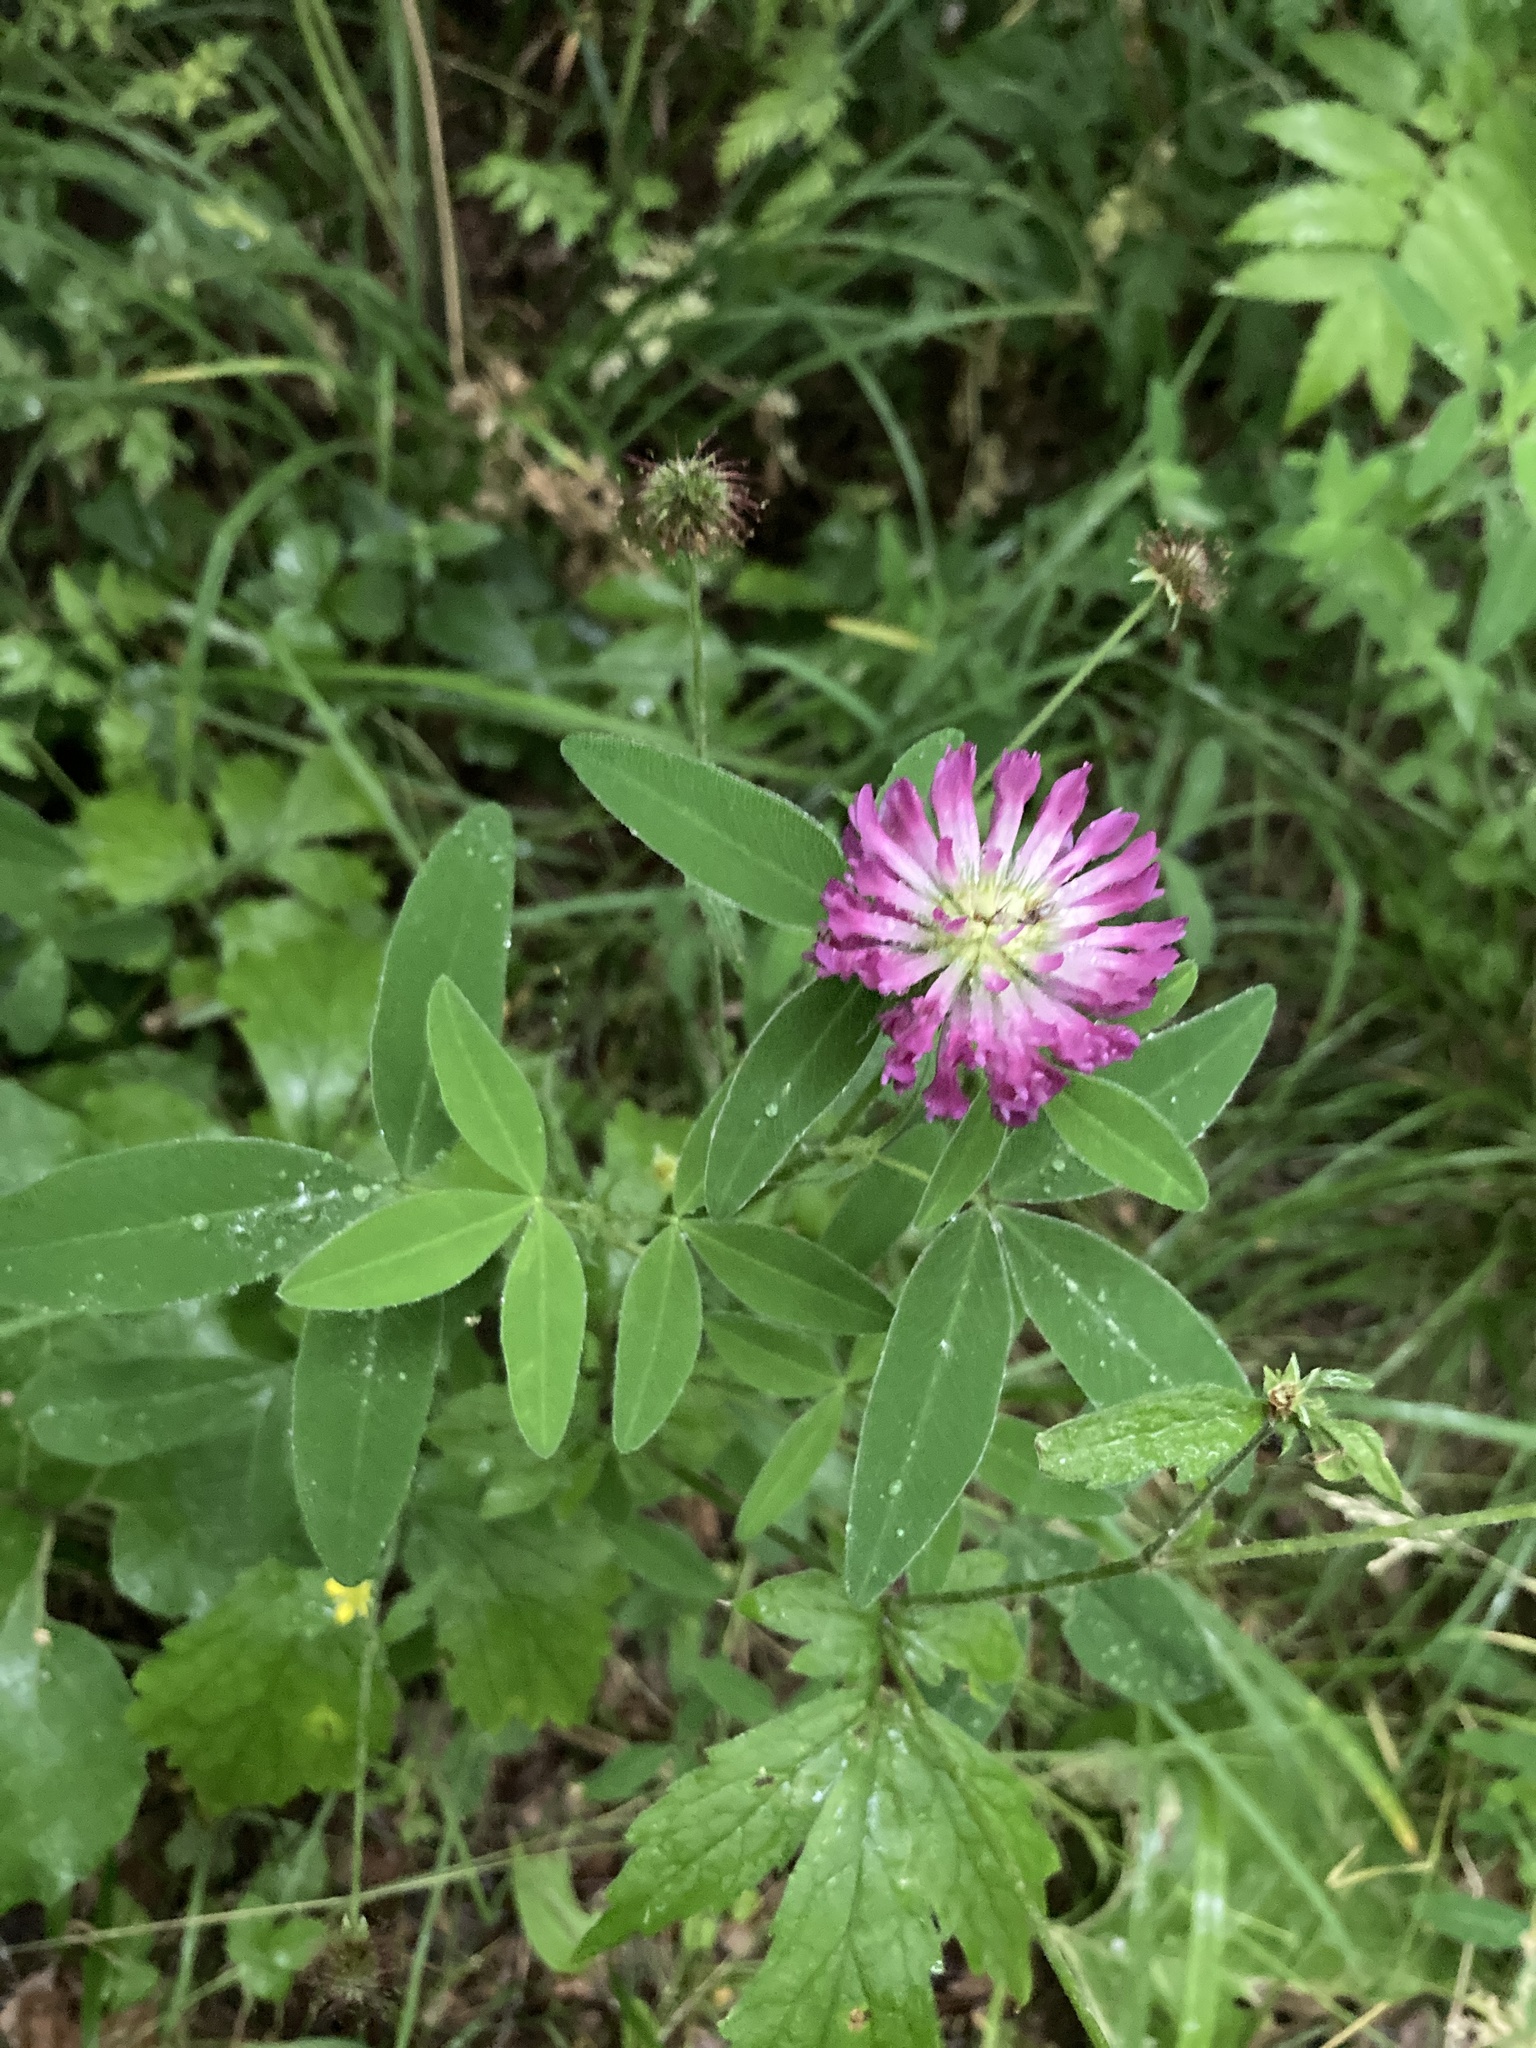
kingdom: Plantae
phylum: Tracheophyta
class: Magnoliopsida
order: Fabales
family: Fabaceae
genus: Trifolium
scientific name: Trifolium medium
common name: Zigzag clover
